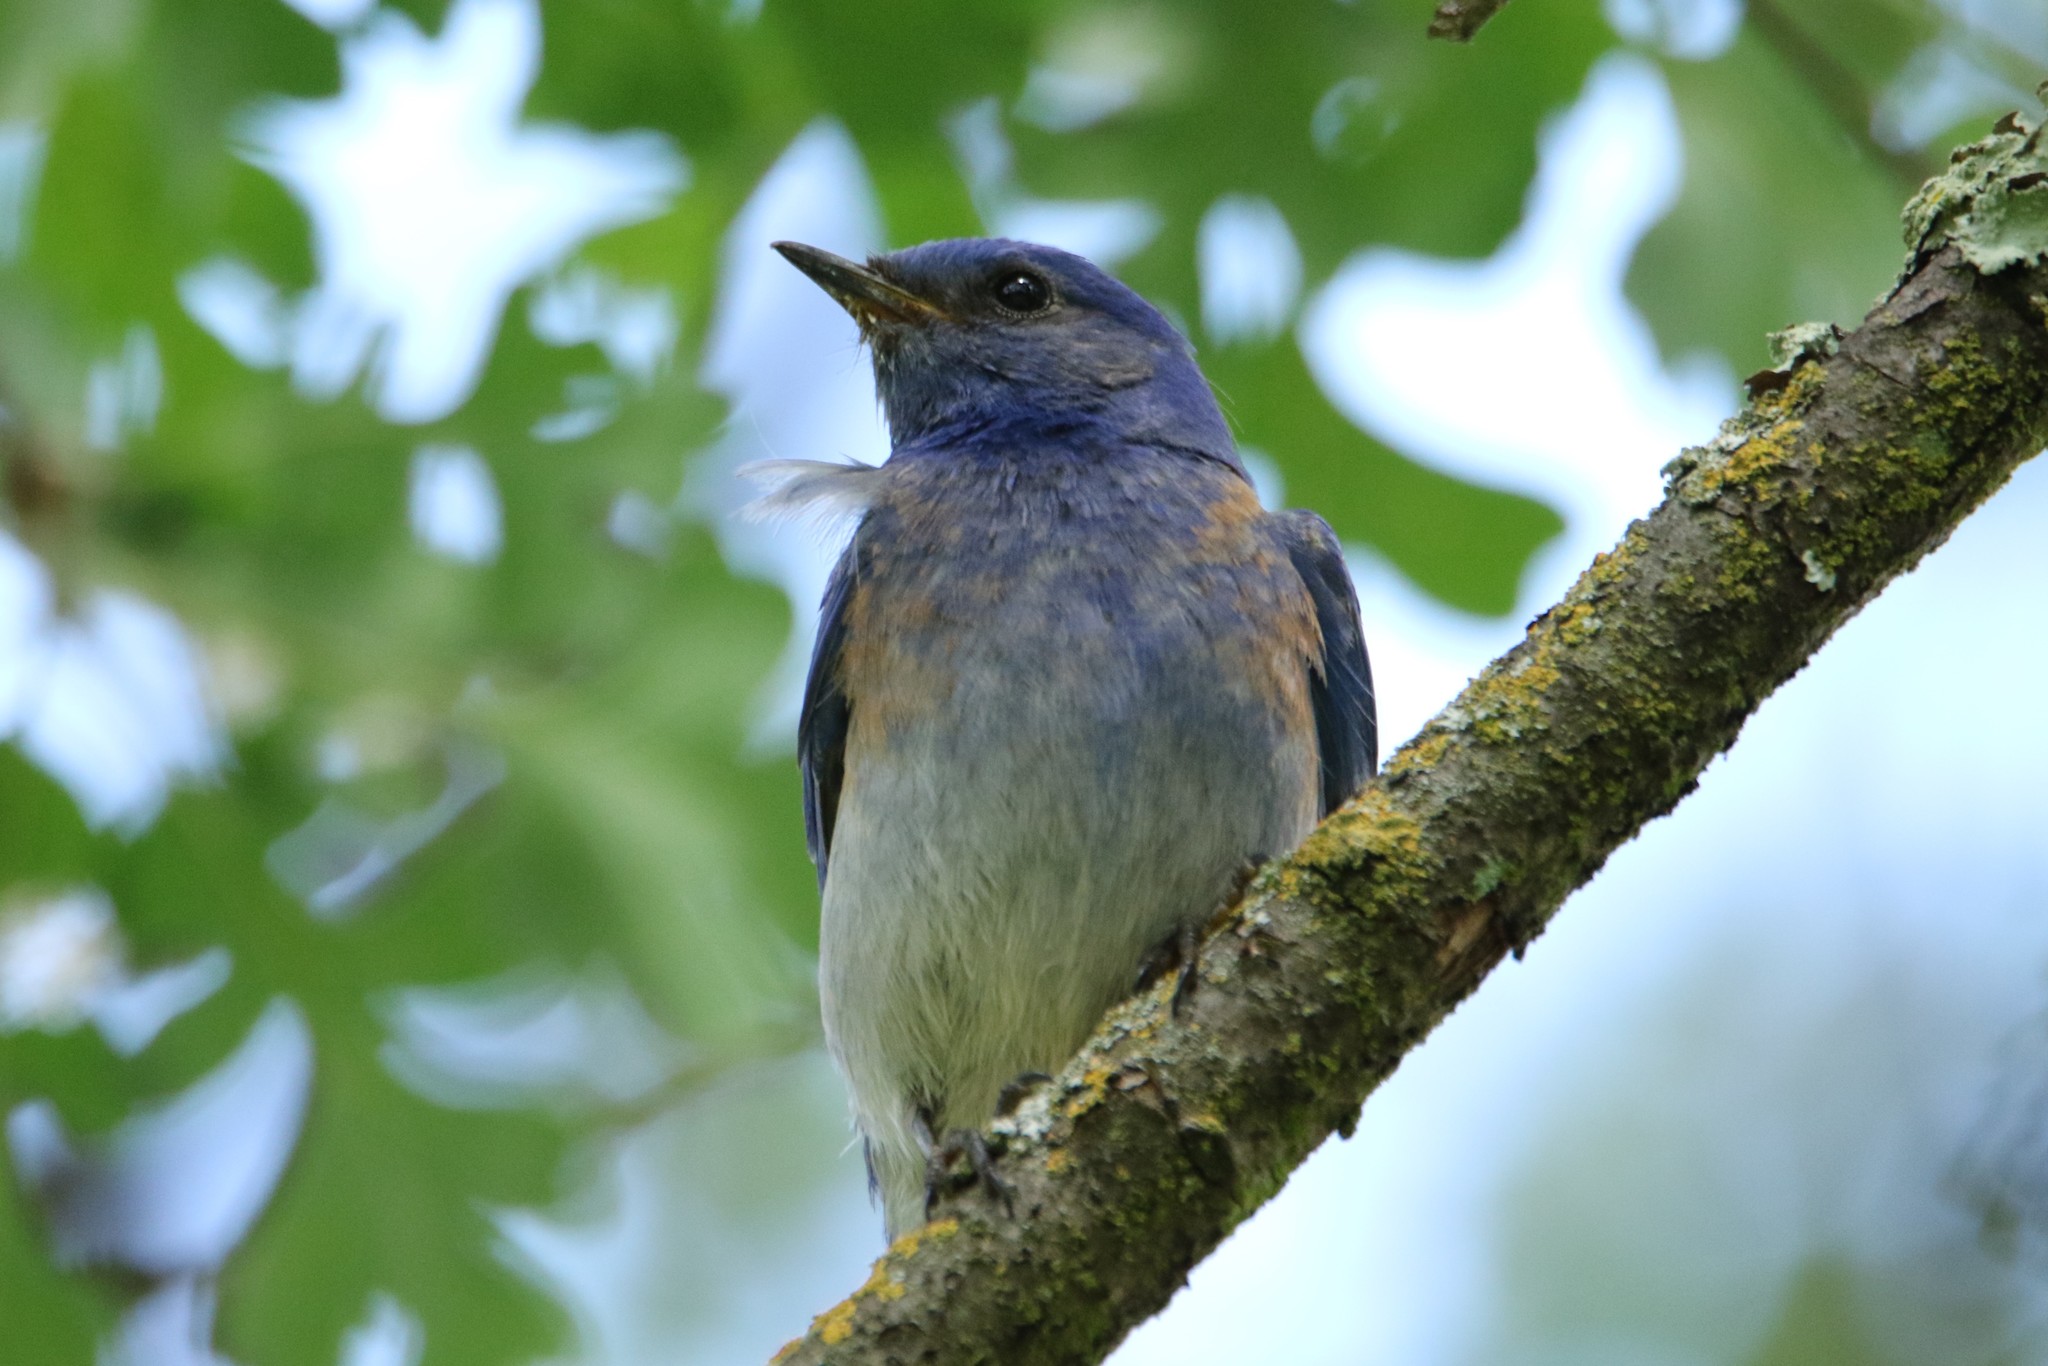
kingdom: Animalia
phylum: Chordata
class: Aves
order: Passeriformes
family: Turdidae
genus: Sialia
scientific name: Sialia mexicana
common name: Western bluebird
